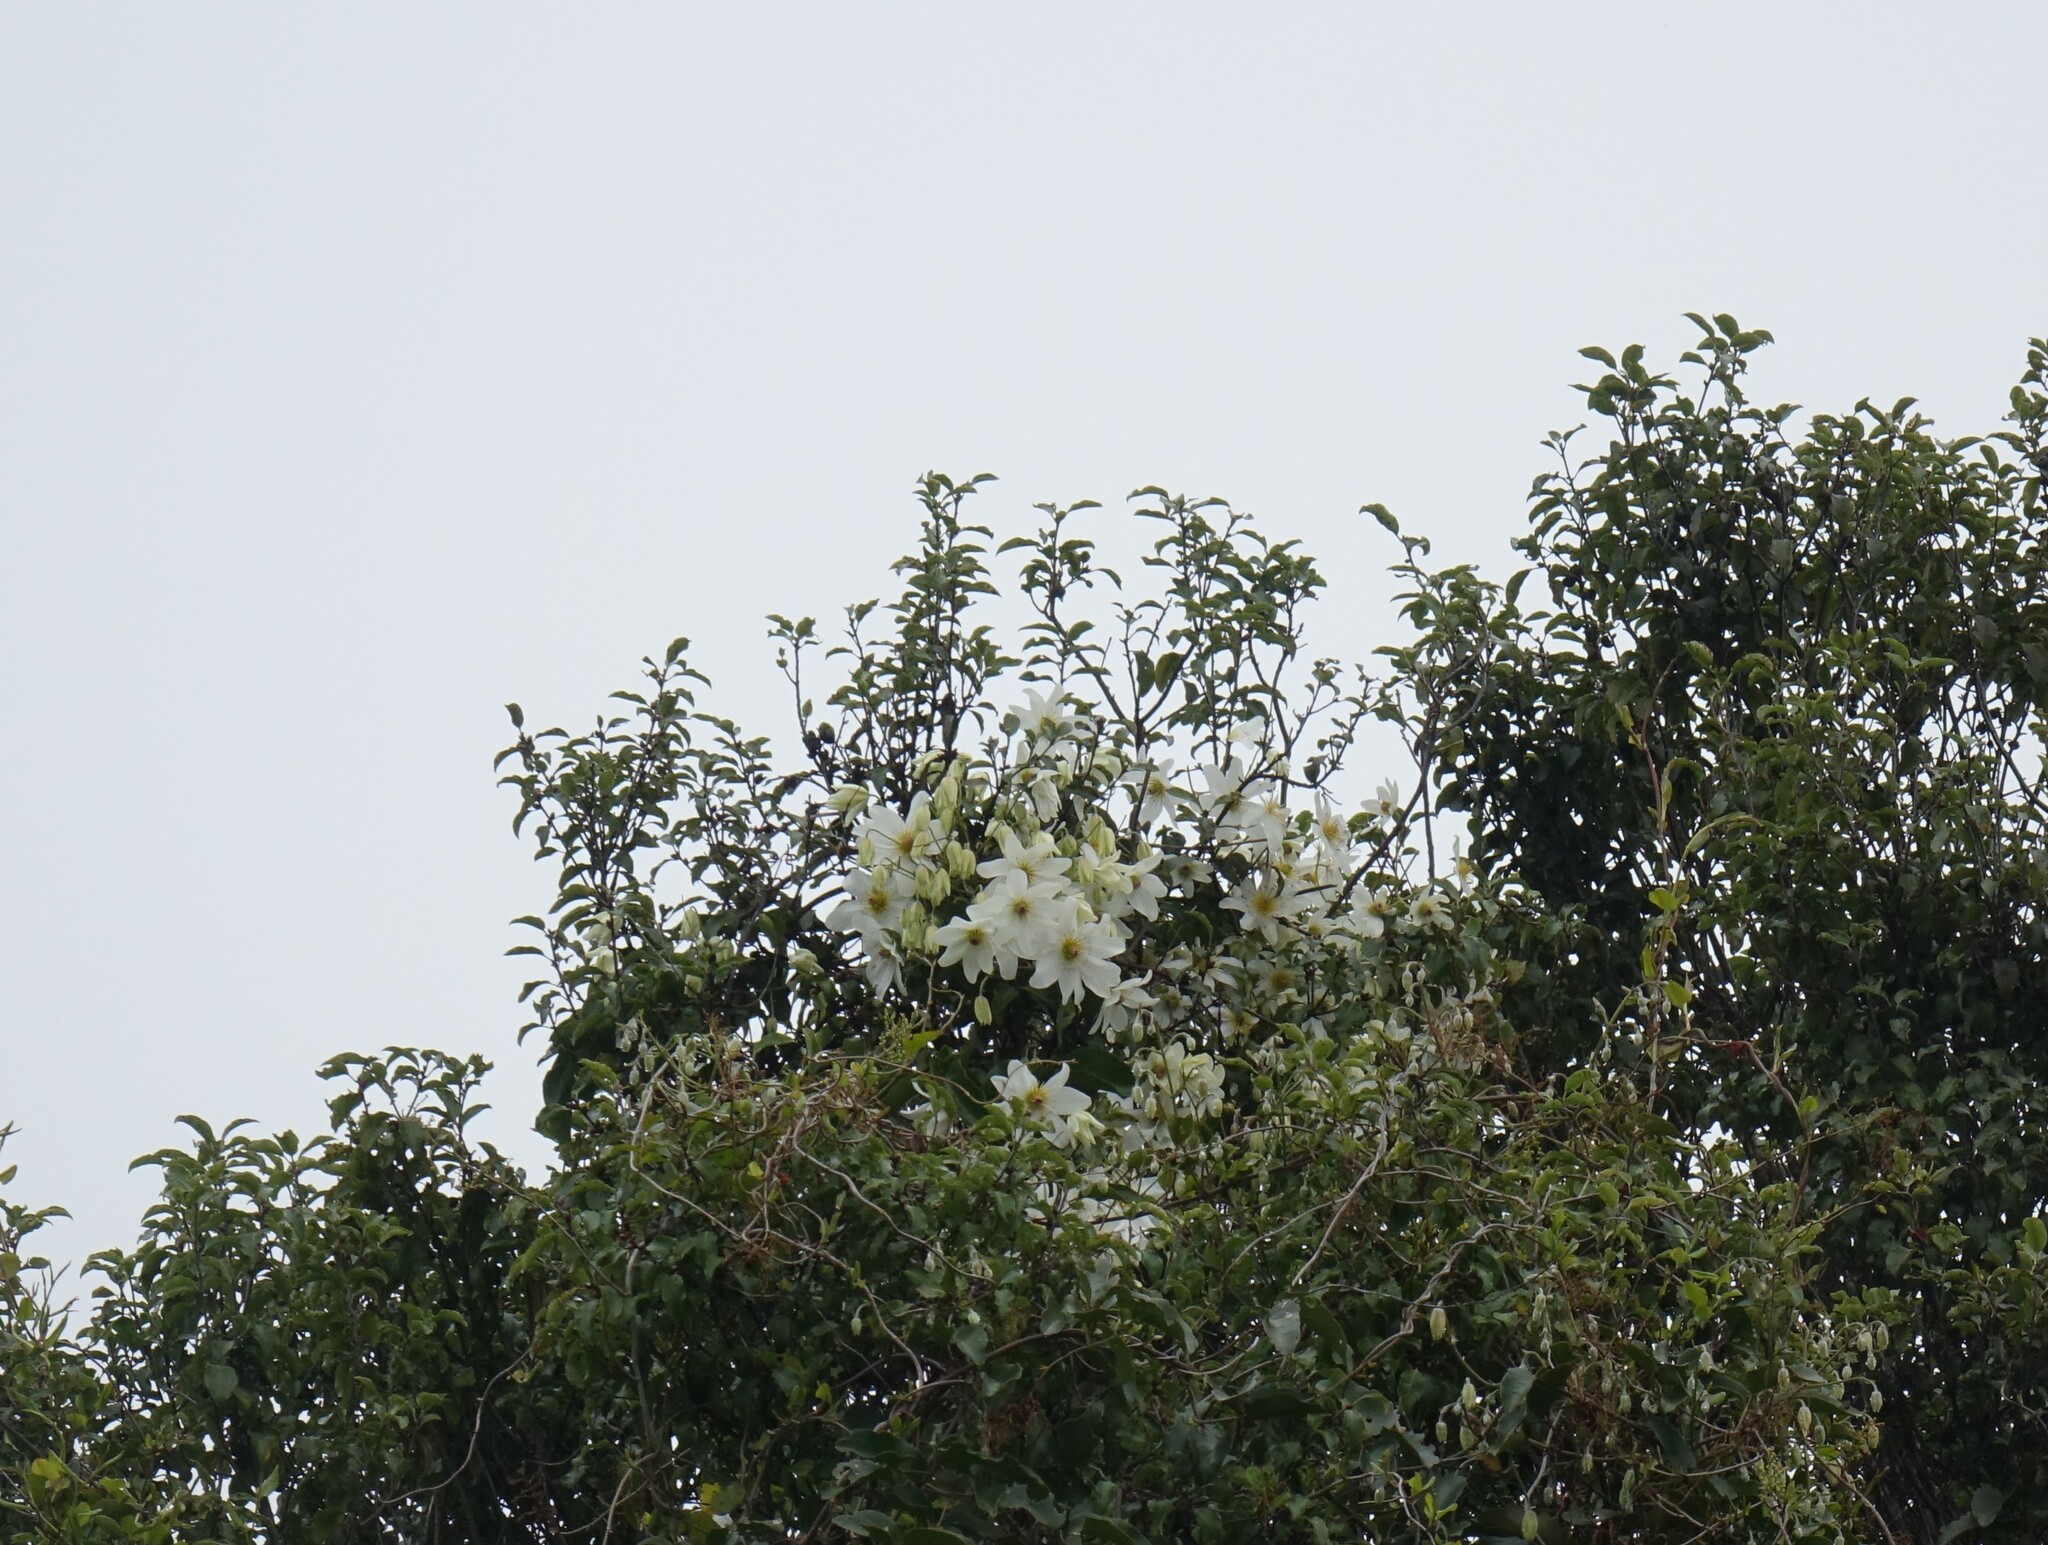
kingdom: Plantae
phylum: Tracheophyta
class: Magnoliopsida
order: Ranunculales
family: Ranunculaceae
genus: Clematis
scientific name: Clematis paniculata
